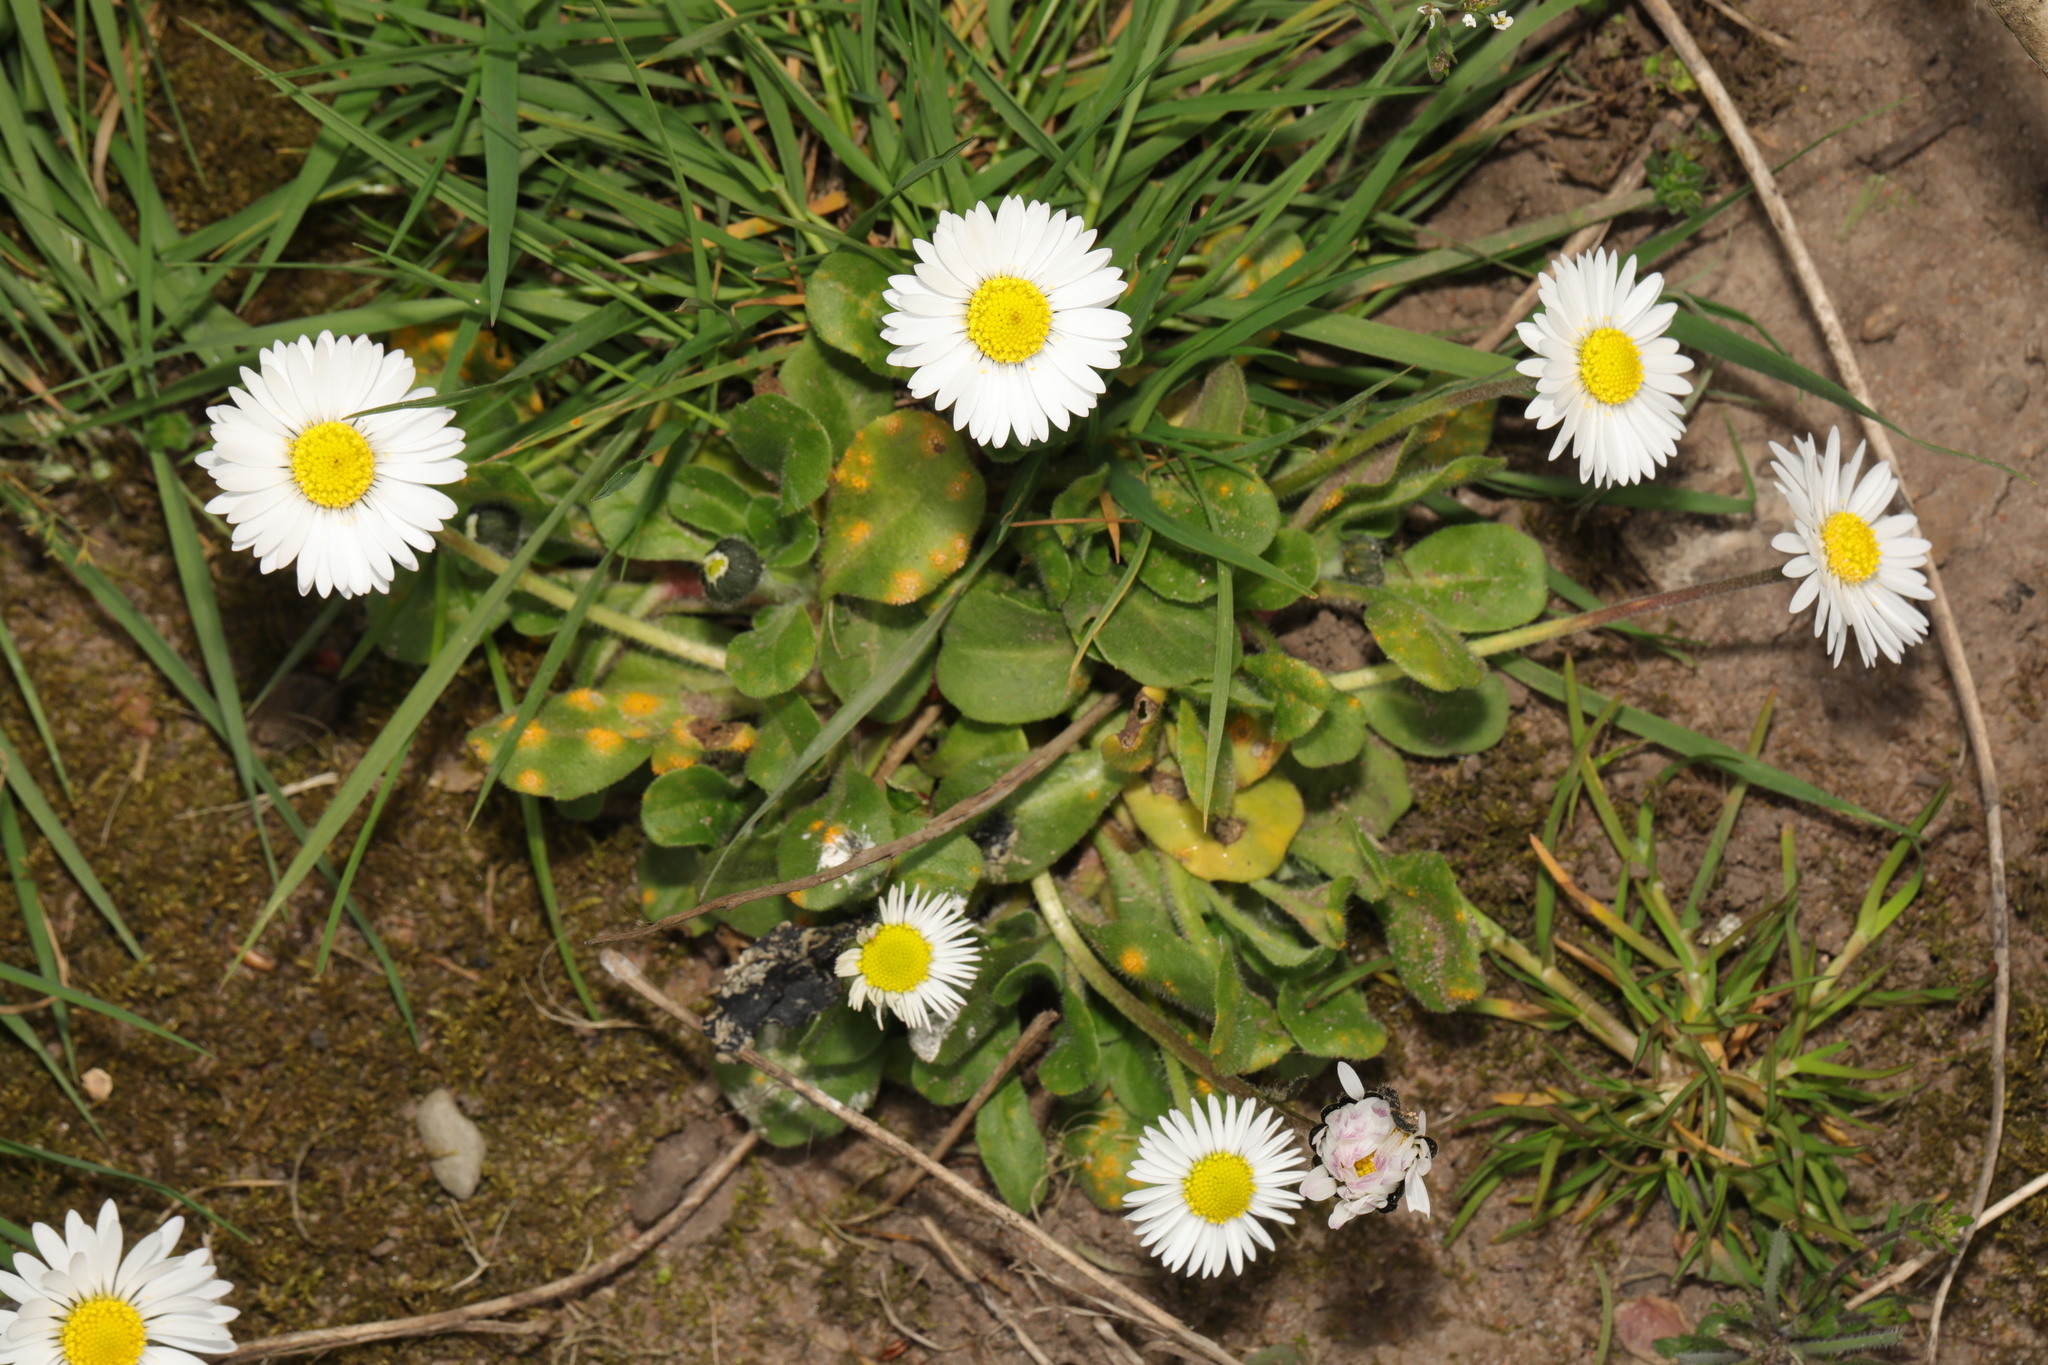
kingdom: Plantae
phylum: Tracheophyta
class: Magnoliopsida
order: Asterales
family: Asteraceae
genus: Bellis
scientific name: Bellis perennis
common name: Lawndaisy
